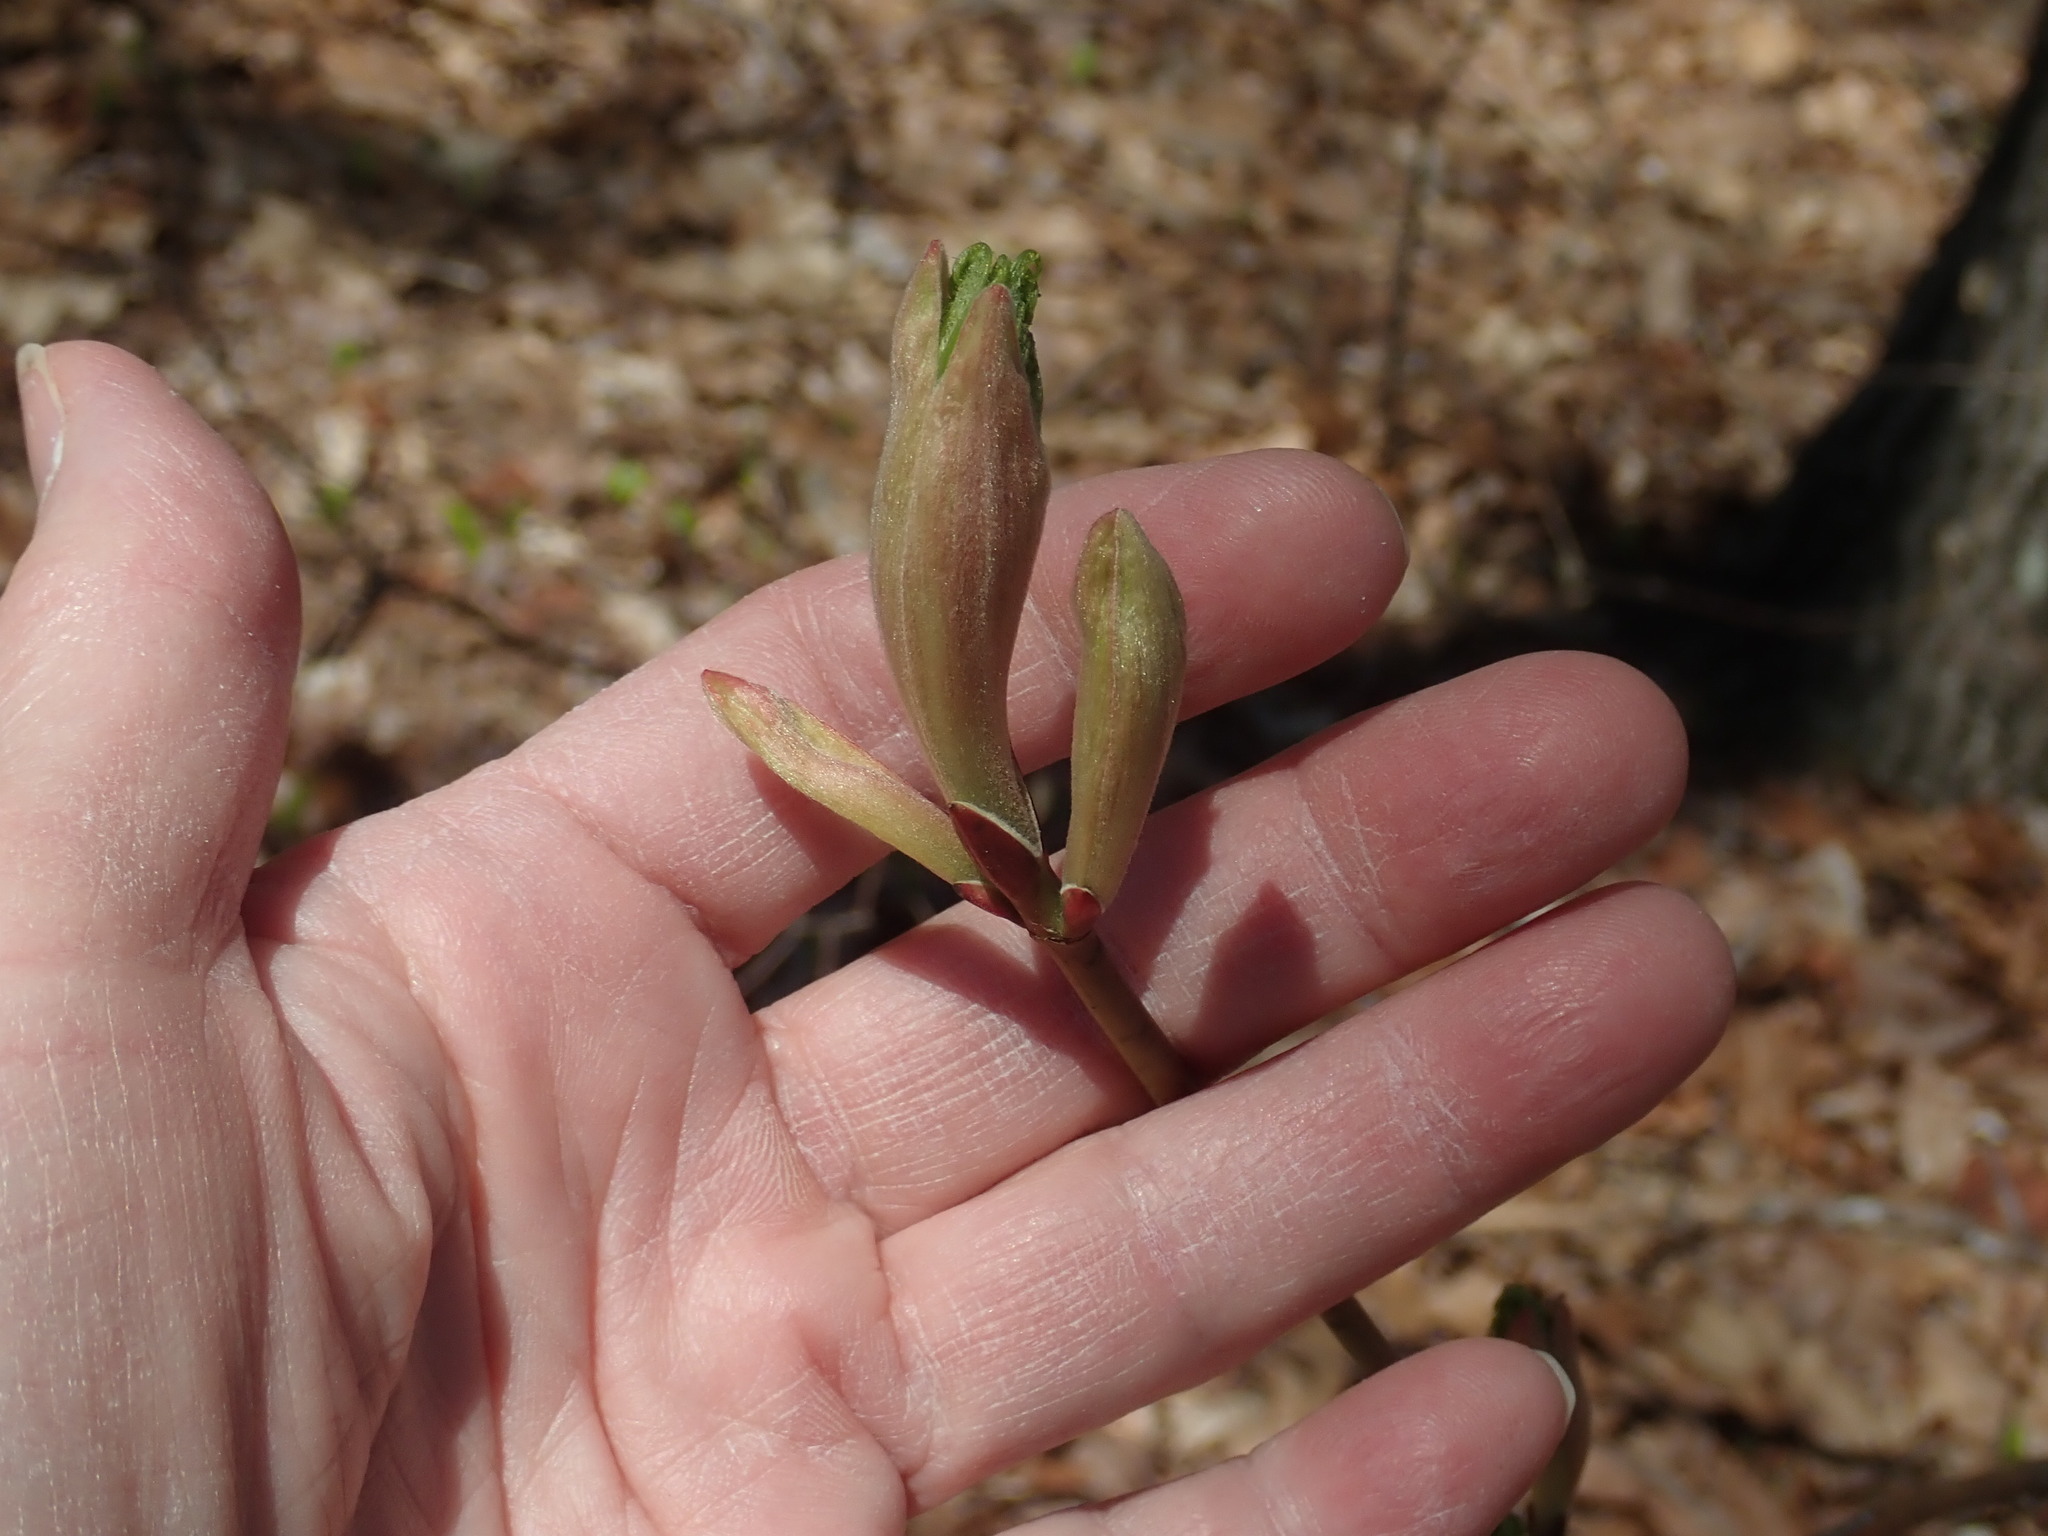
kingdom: Plantae
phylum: Tracheophyta
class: Magnoliopsida
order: Sapindales
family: Sapindaceae
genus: Acer
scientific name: Acer pensylvanicum
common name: Moosewood
